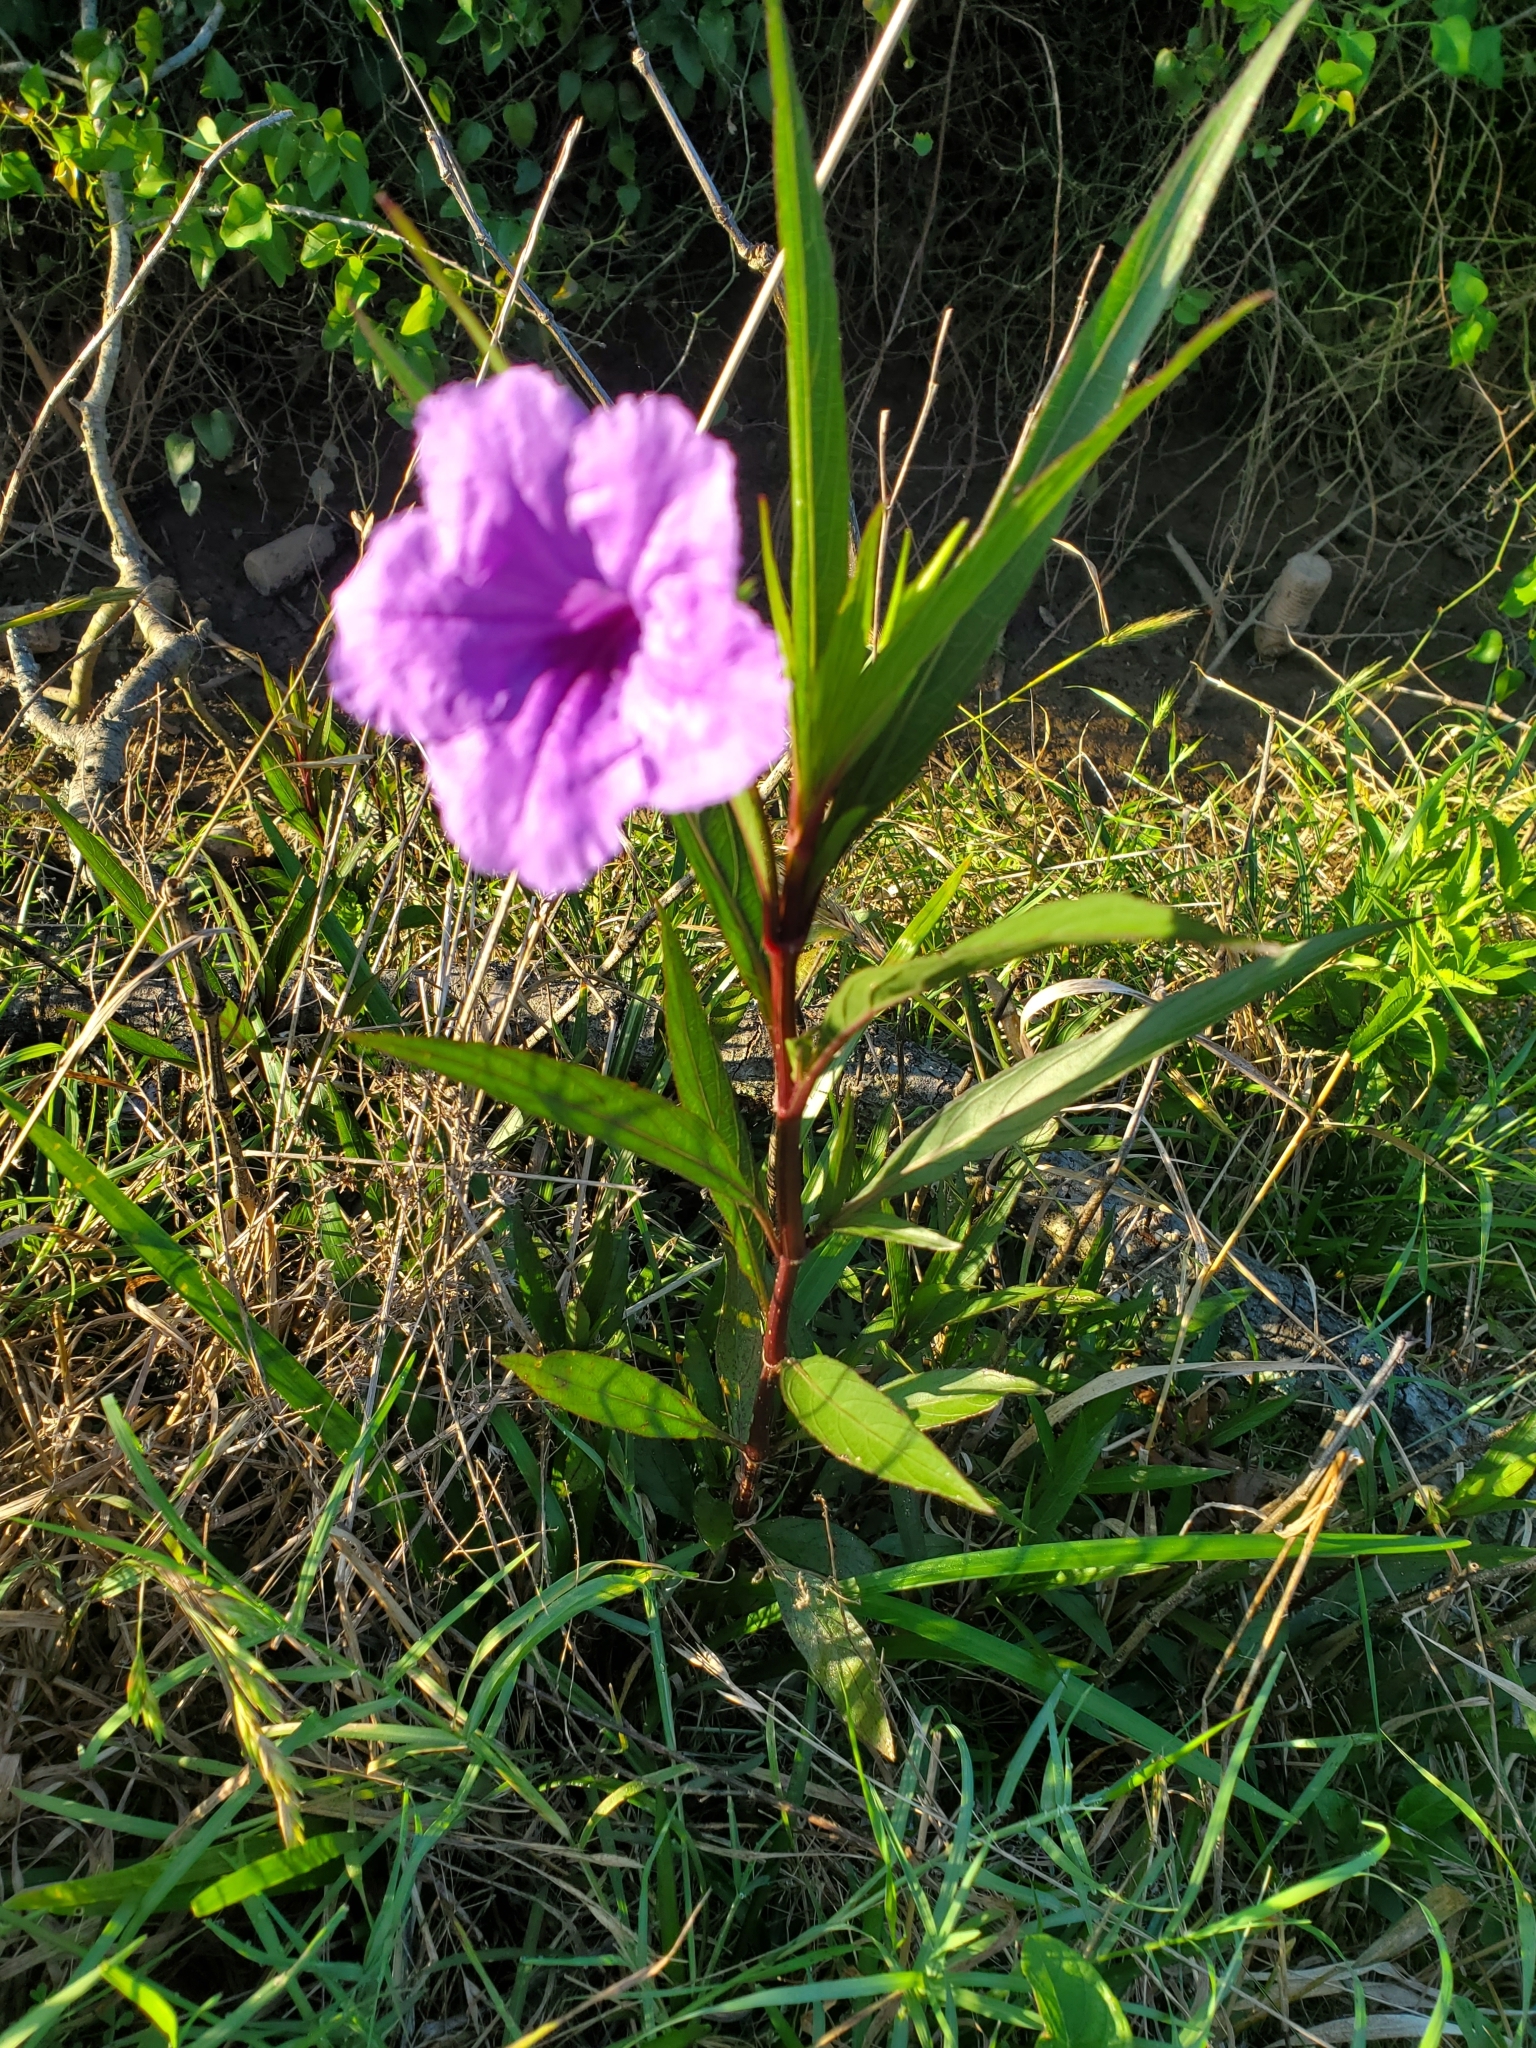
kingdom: Plantae
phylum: Tracheophyta
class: Magnoliopsida
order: Lamiales
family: Acanthaceae
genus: Ruellia
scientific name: Ruellia simplex
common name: Softseed wild petunia
